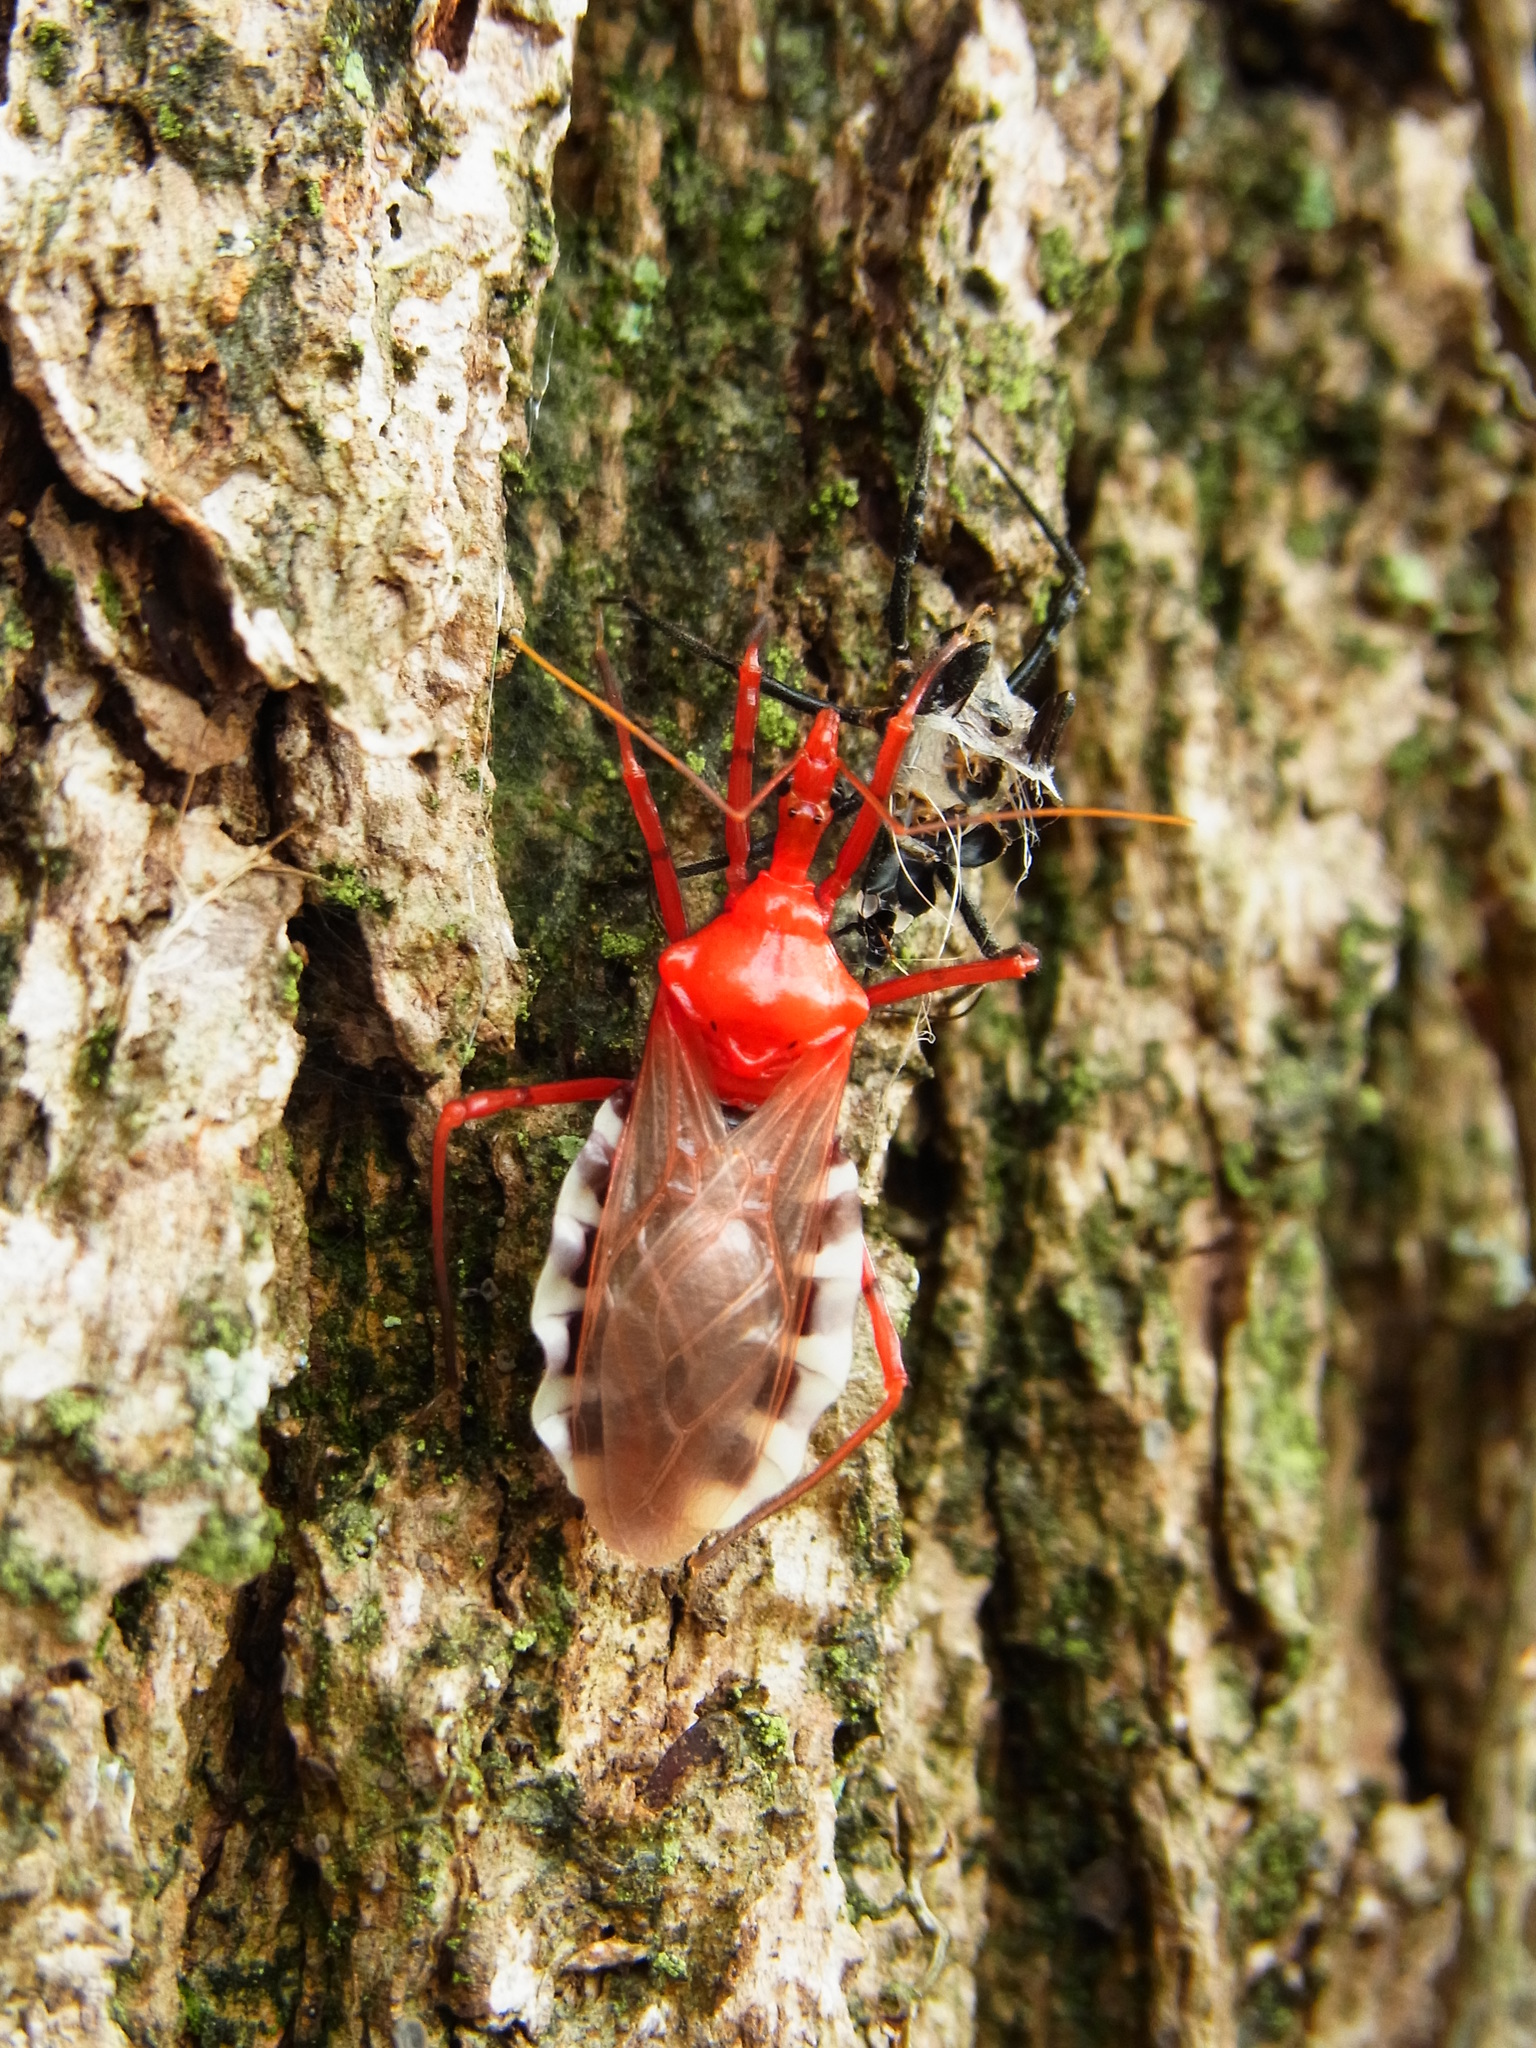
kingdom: Animalia
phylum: Arthropoda
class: Insecta
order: Hemiptera
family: Reduviidae
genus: Agriosphodrus
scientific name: Agriosphodrus dohrni
